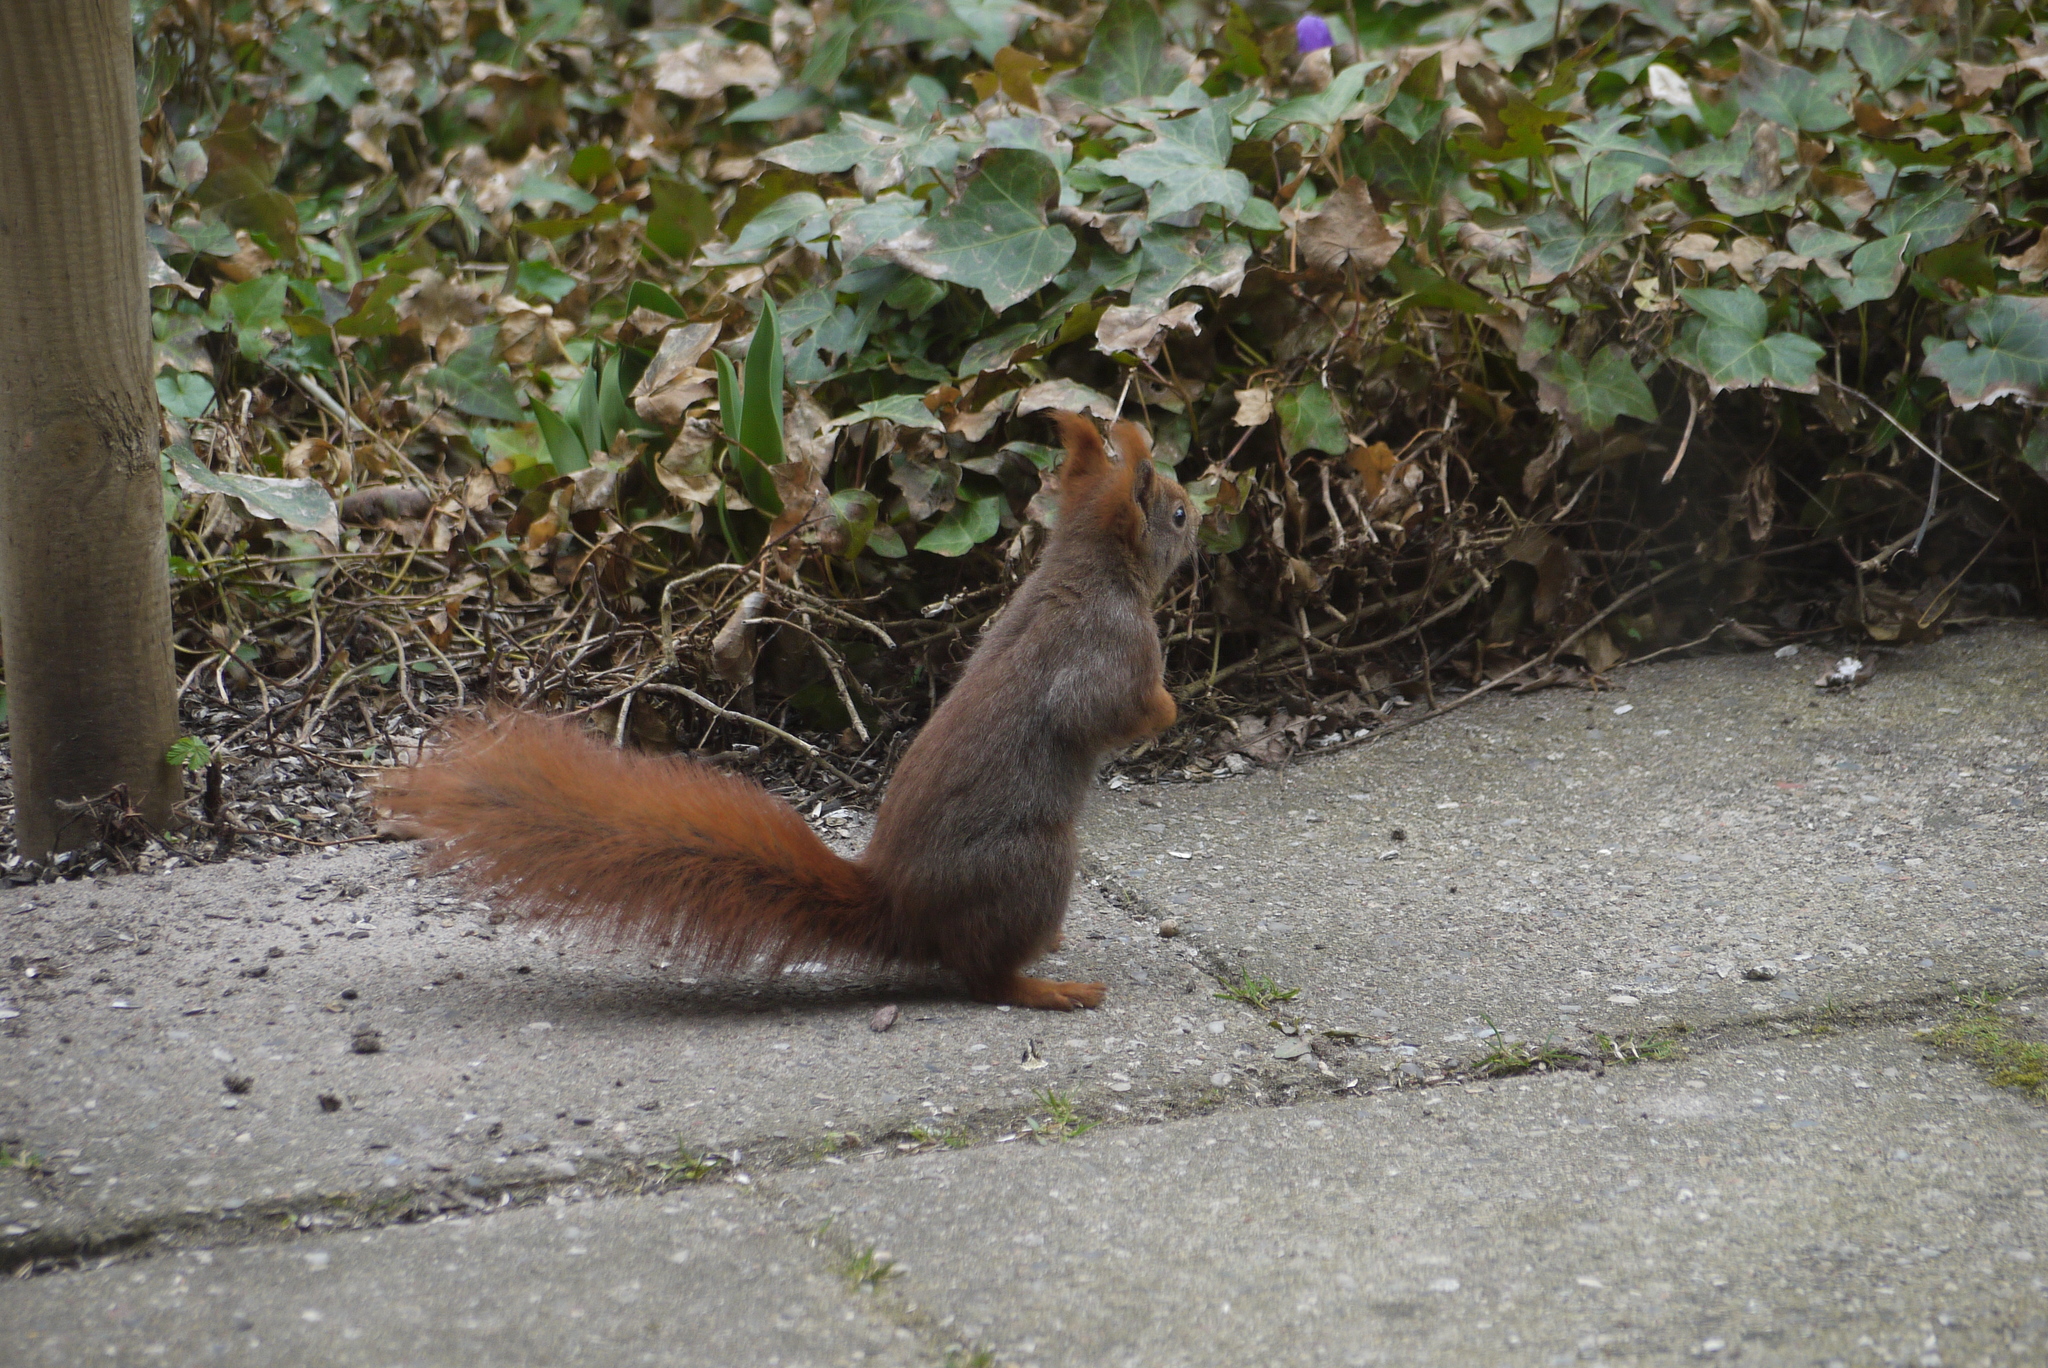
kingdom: Animalia
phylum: Chordata
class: Mammalia
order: Rodentia
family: Sciuridae
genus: Sciurus
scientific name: Sciurus vulgaris
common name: Eurasian red squirrel
